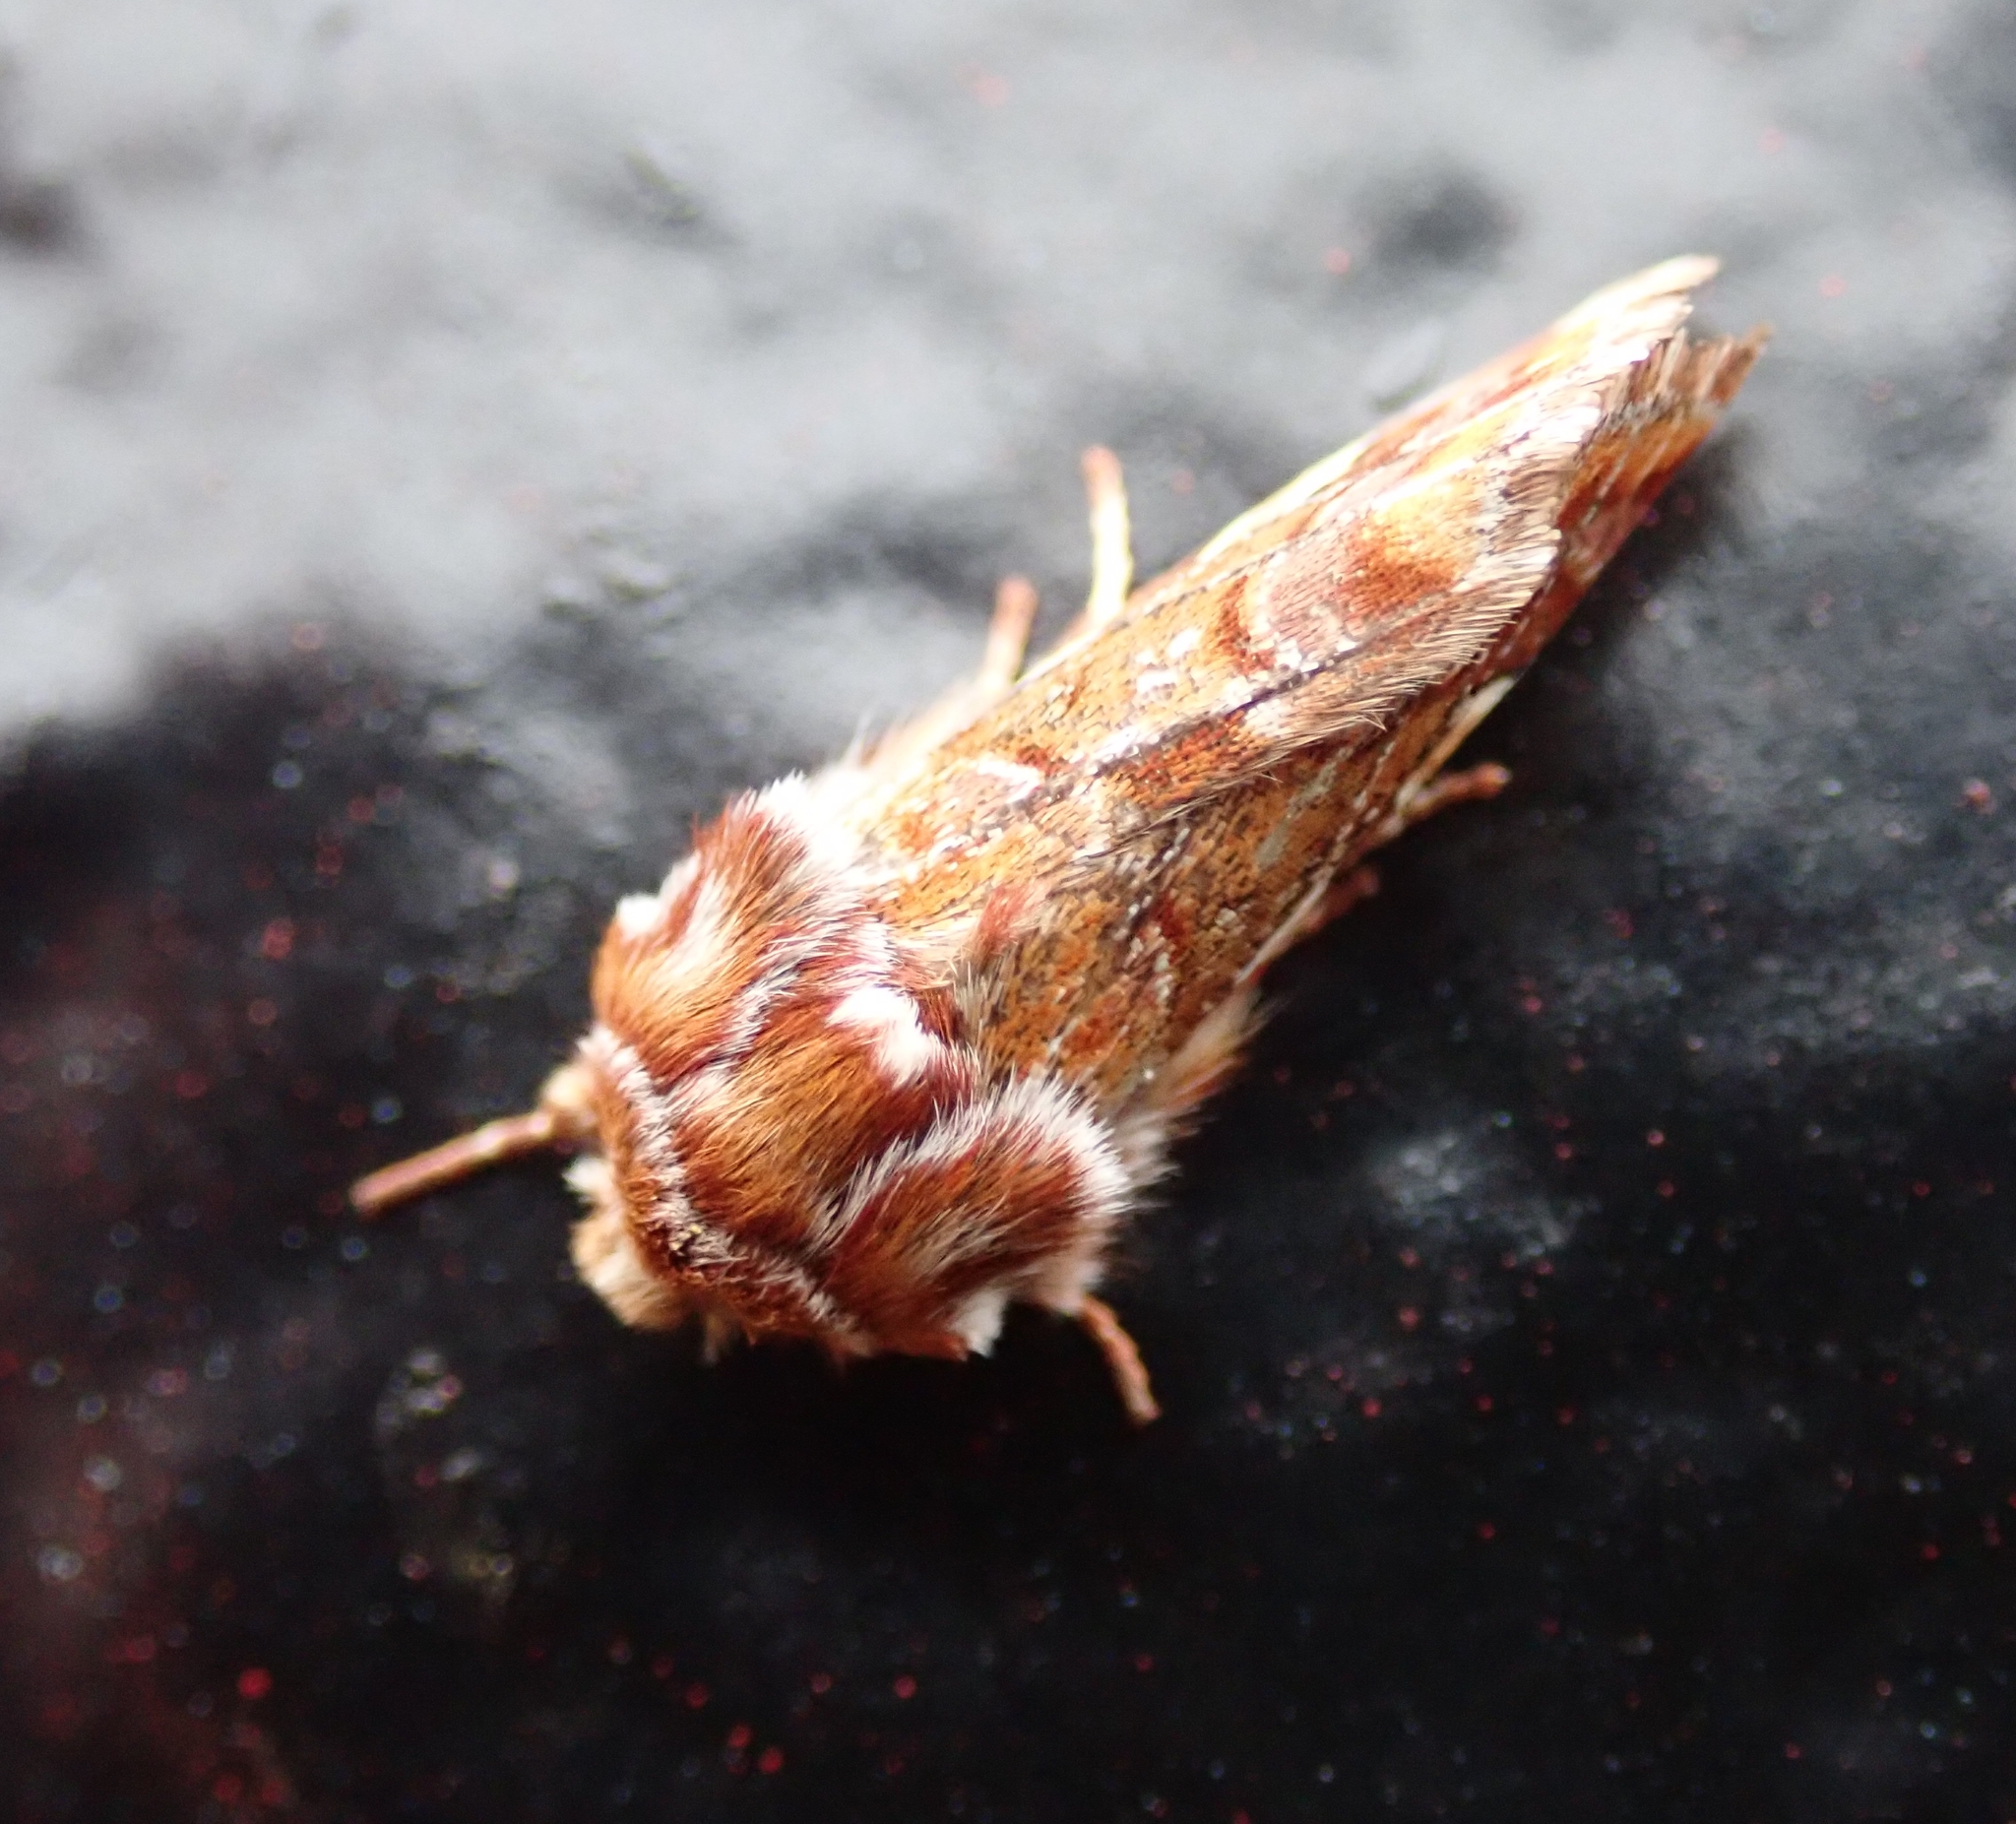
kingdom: Animalia
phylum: Arthropoda
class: Insecta
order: Lepidoptera
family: Noctuidae
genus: Panolis
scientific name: Panolis flammea
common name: Pine beauty
